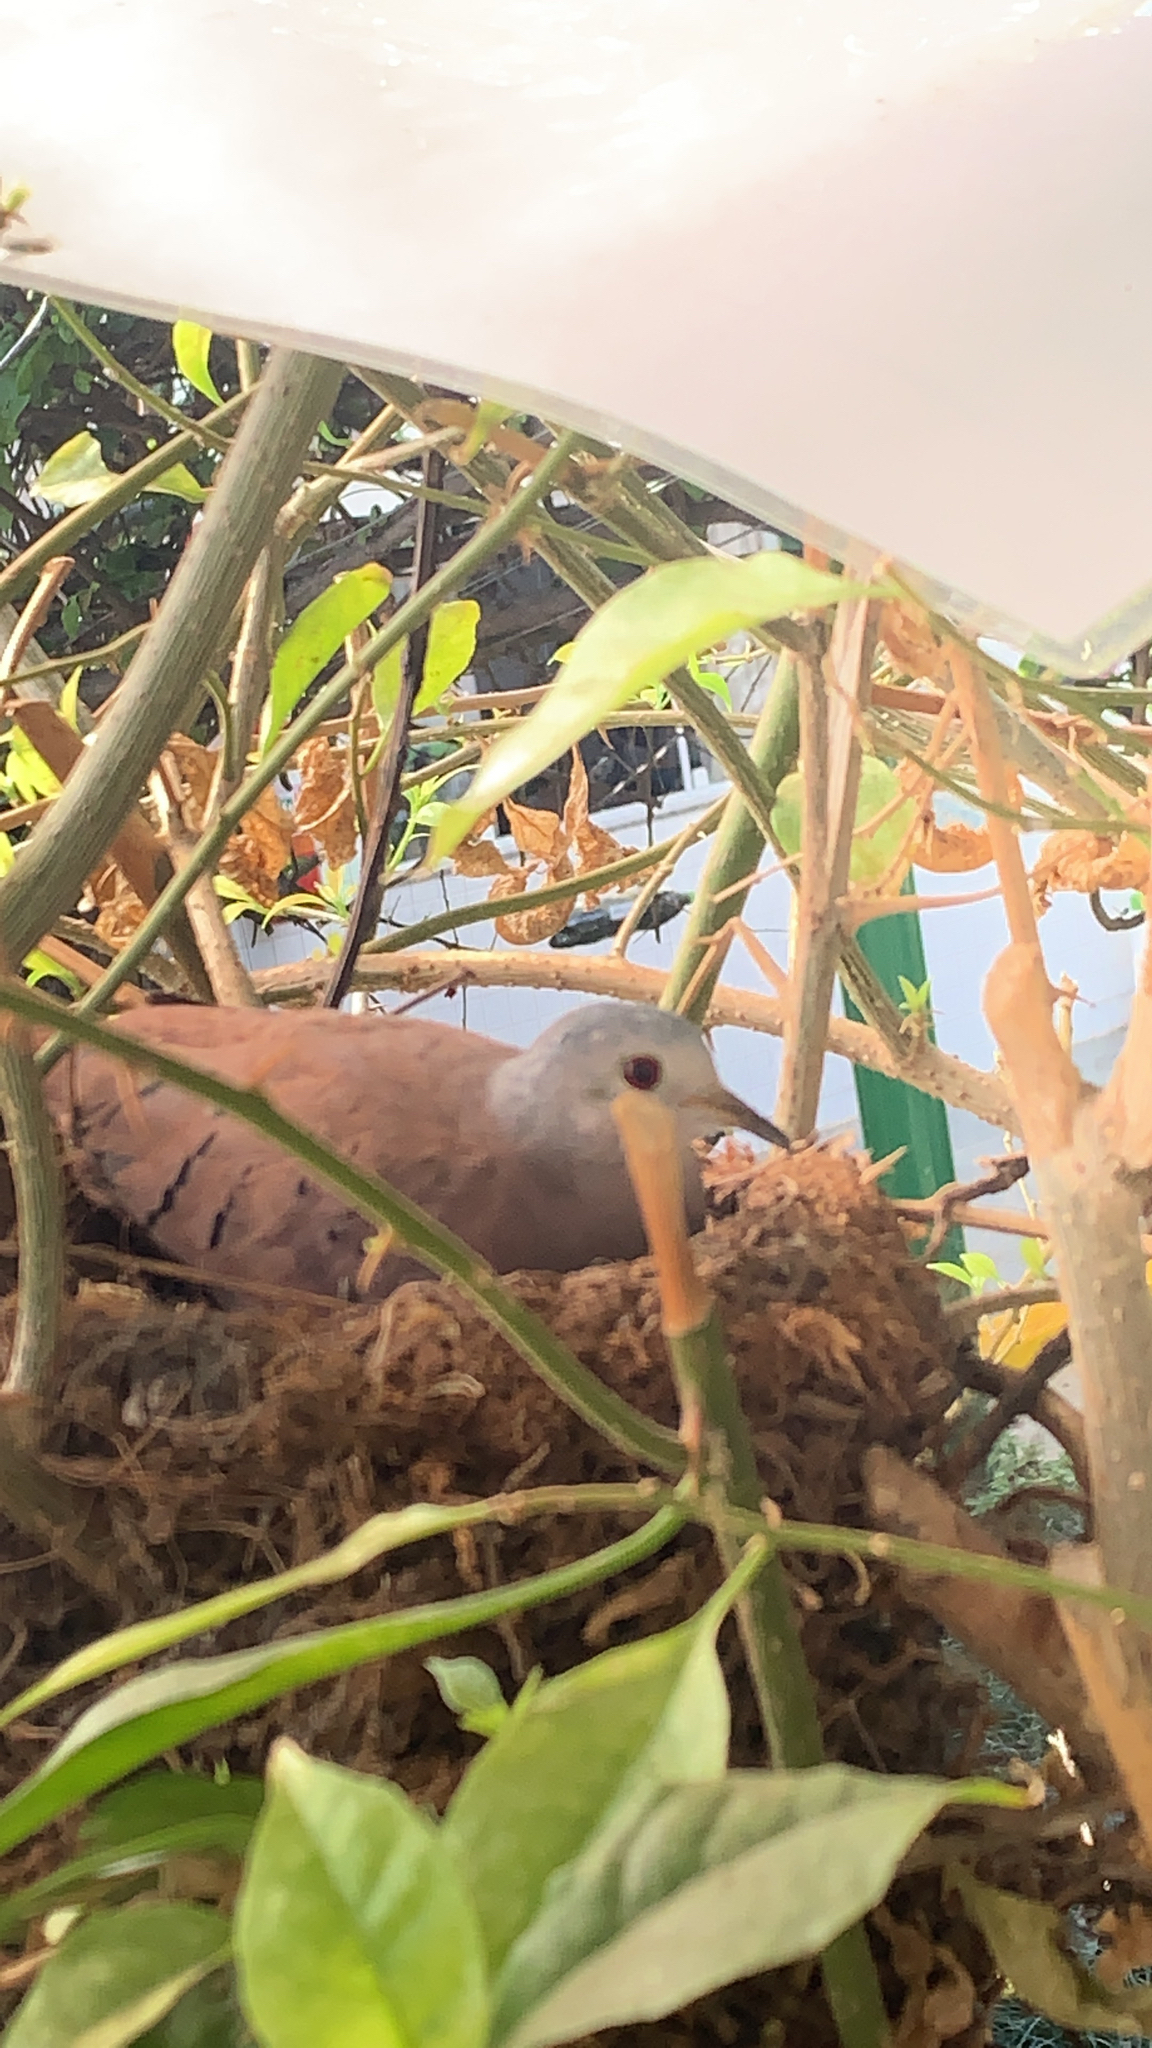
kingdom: Animalia
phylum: Chordata
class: Aves
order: Columbiformes
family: Columbidae
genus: Columbina
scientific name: Columbina talpacoti
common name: Ruddy ground dove
